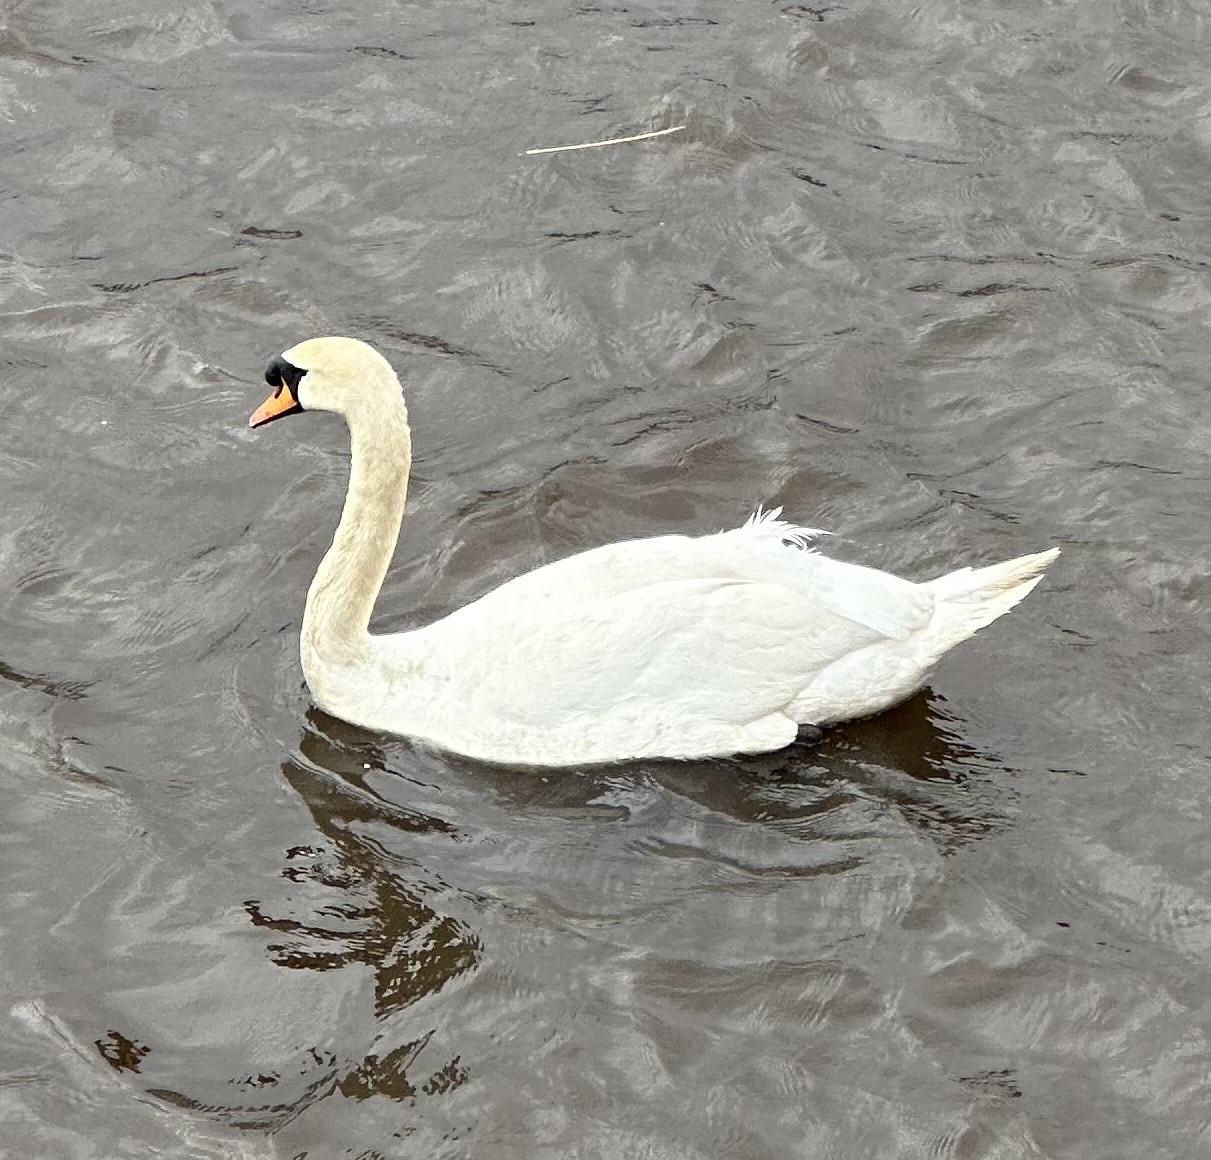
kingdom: Animalia
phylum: Chordata
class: Aves
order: Anseriformes
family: Anatidae
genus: Cygnus
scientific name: Cygnus olor
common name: Mute swan
